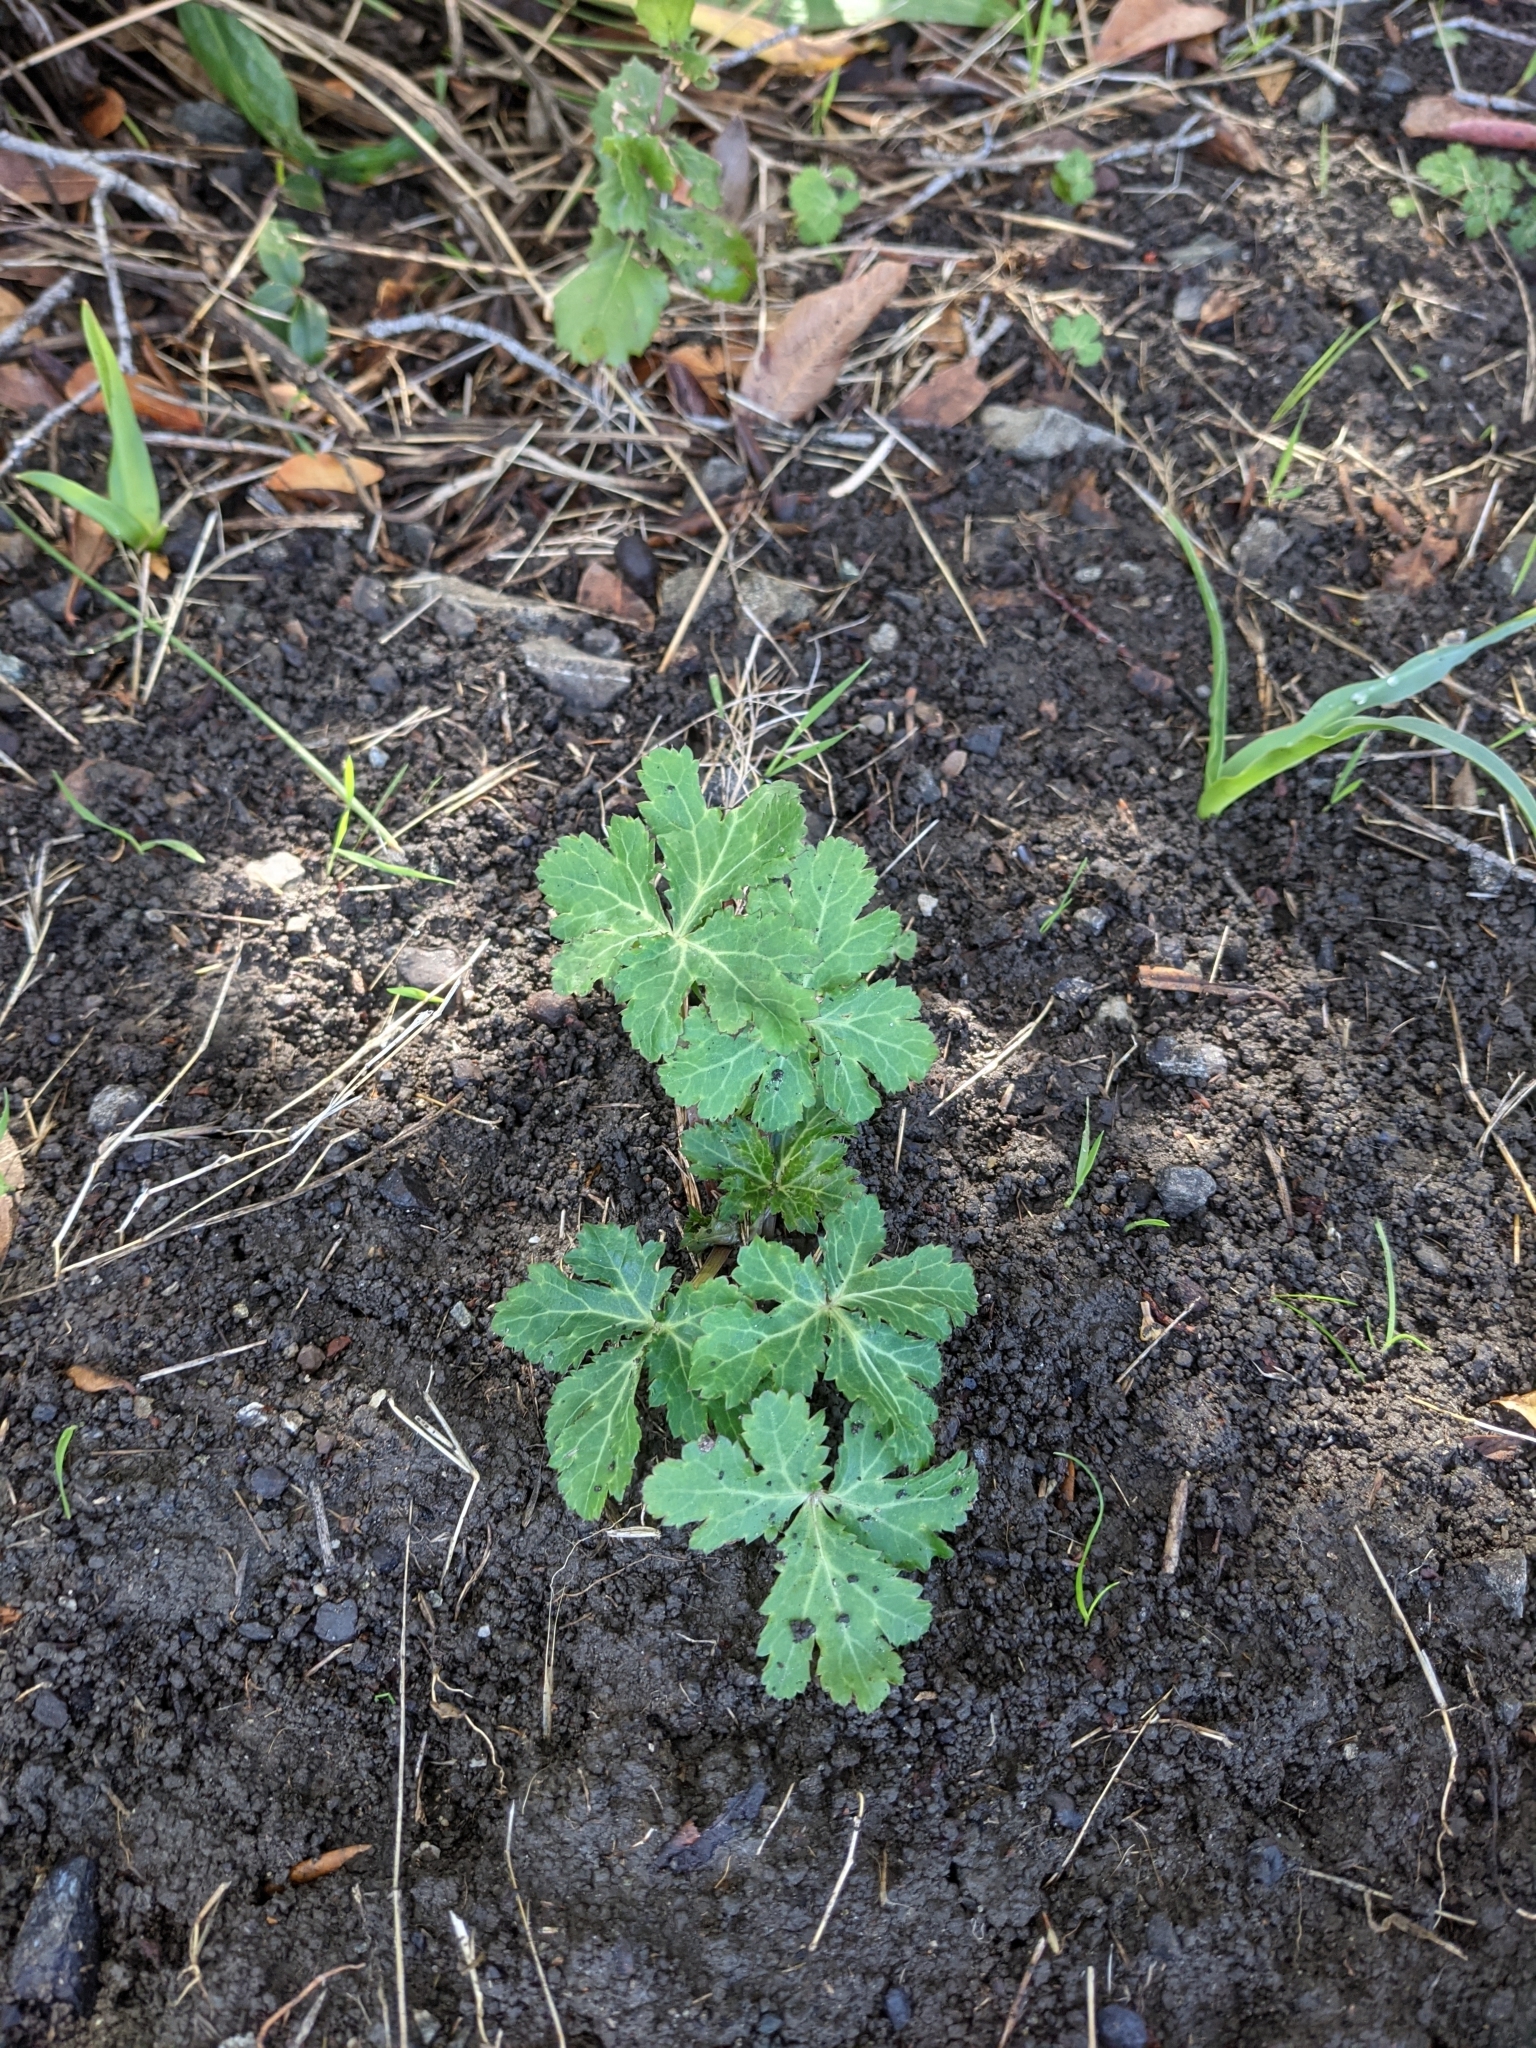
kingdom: Plantae
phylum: Tracheophyta
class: Magnoliopsida
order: Apiales
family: Apiaceae
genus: Sanicula
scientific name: Sanicula crassicaulis
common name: Western snakeroot
